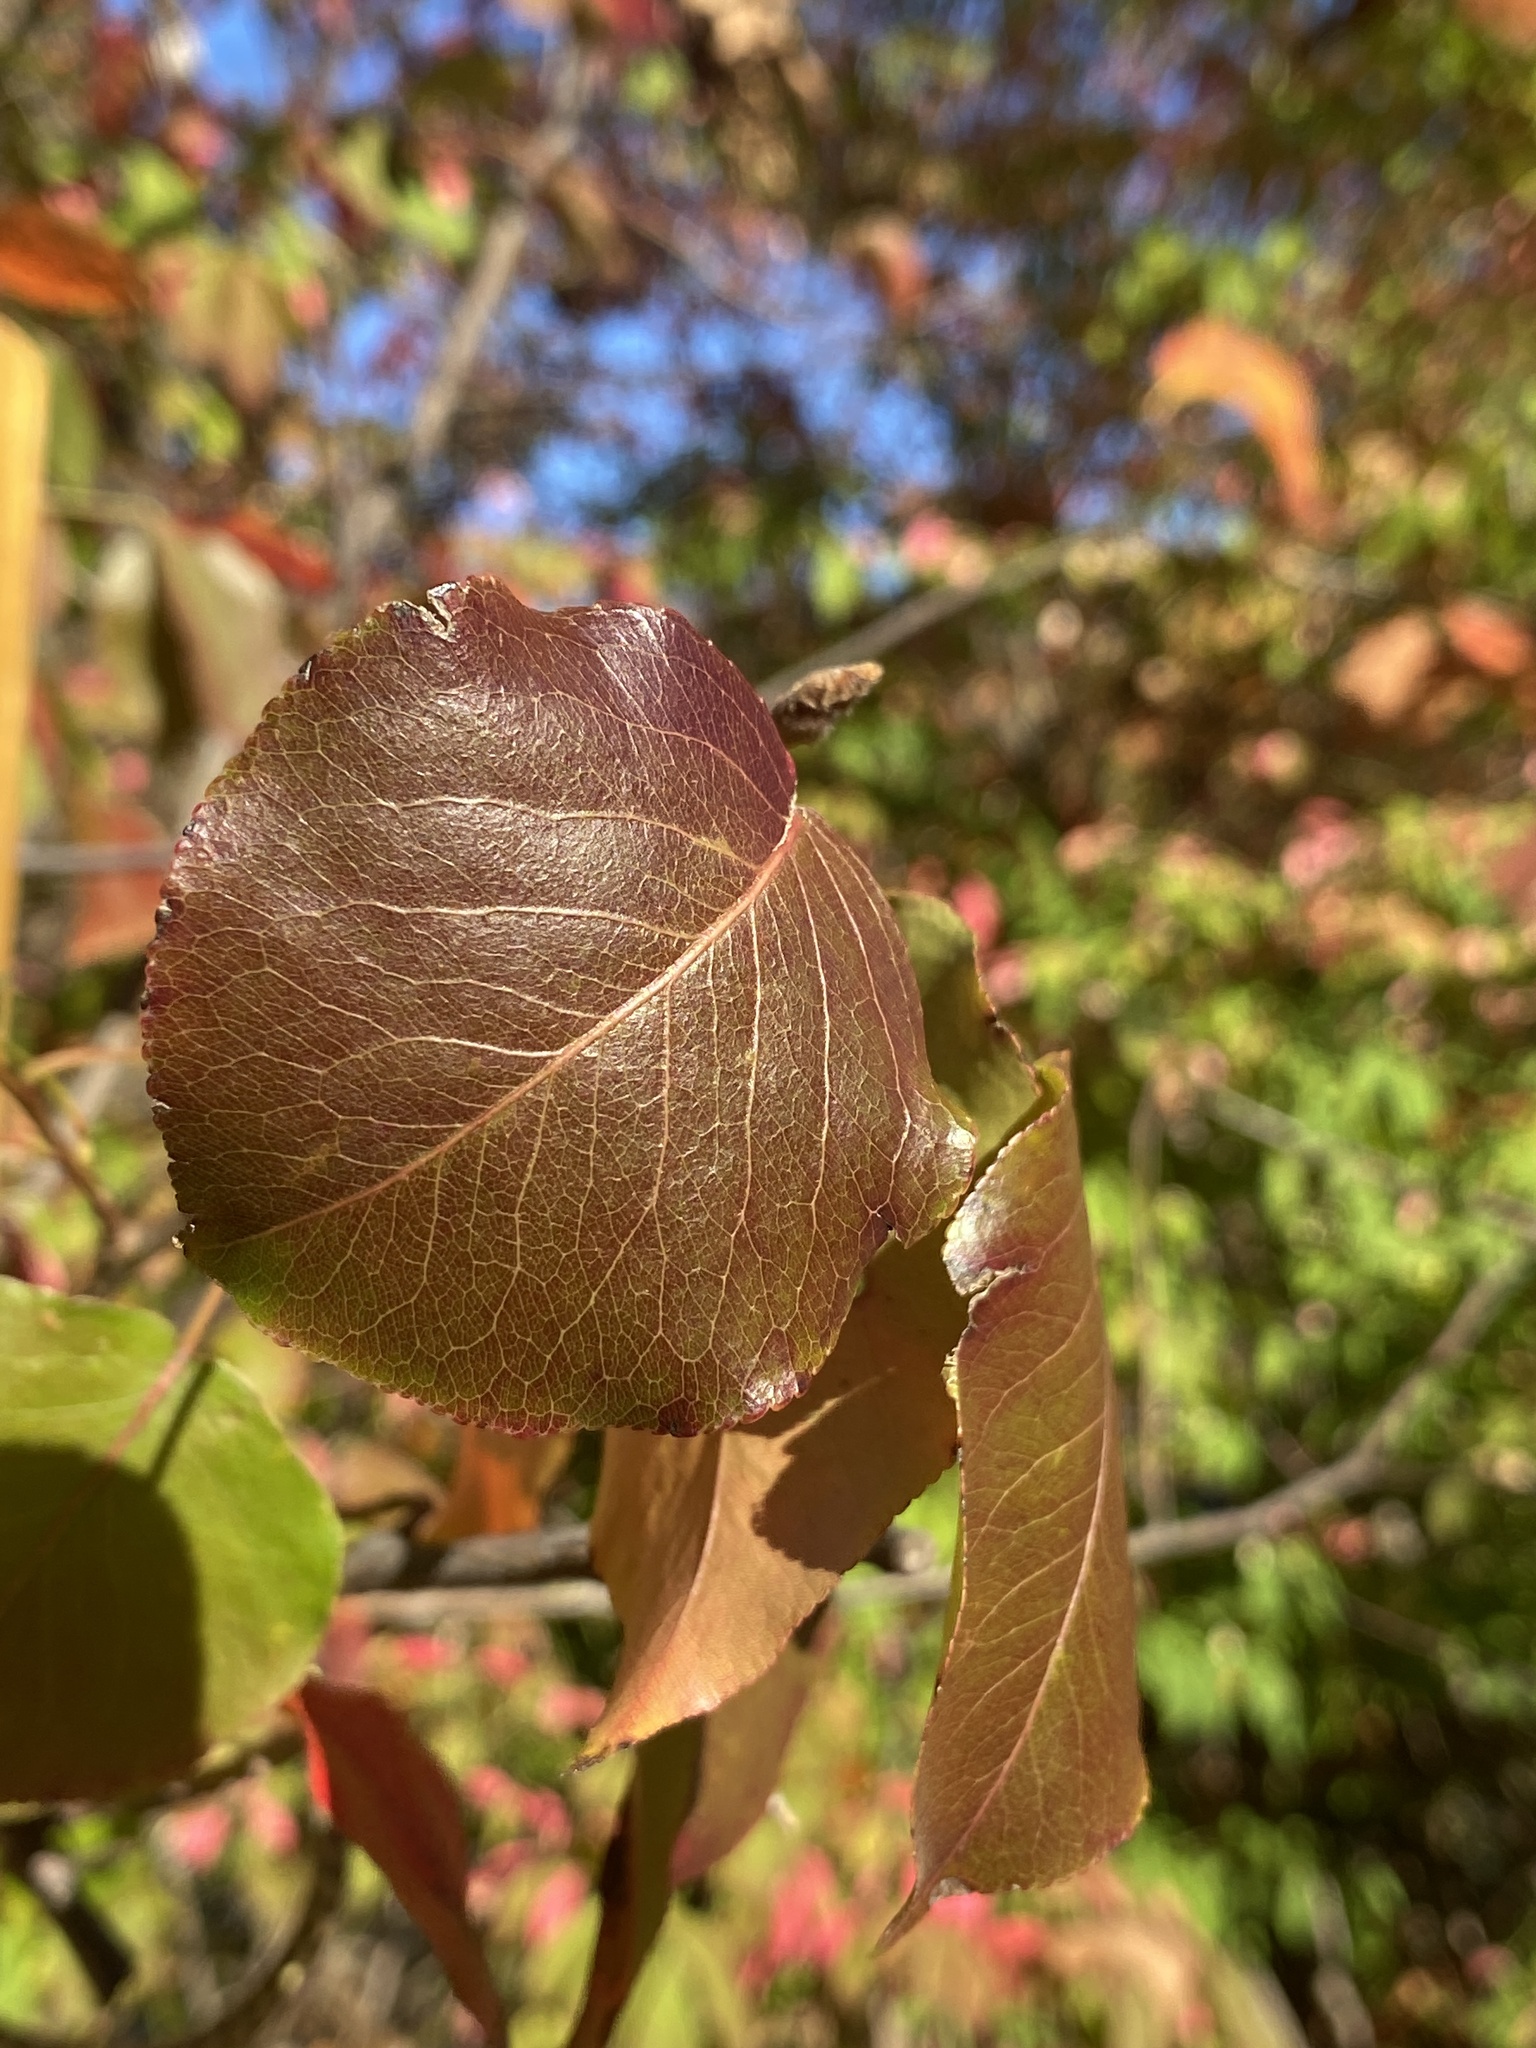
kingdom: Plantae
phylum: Tracheophyta
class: Magnoliopsida
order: Rosales
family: Rosaceae
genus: Pyrus
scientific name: Pyrus calleryana
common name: Callery pear
